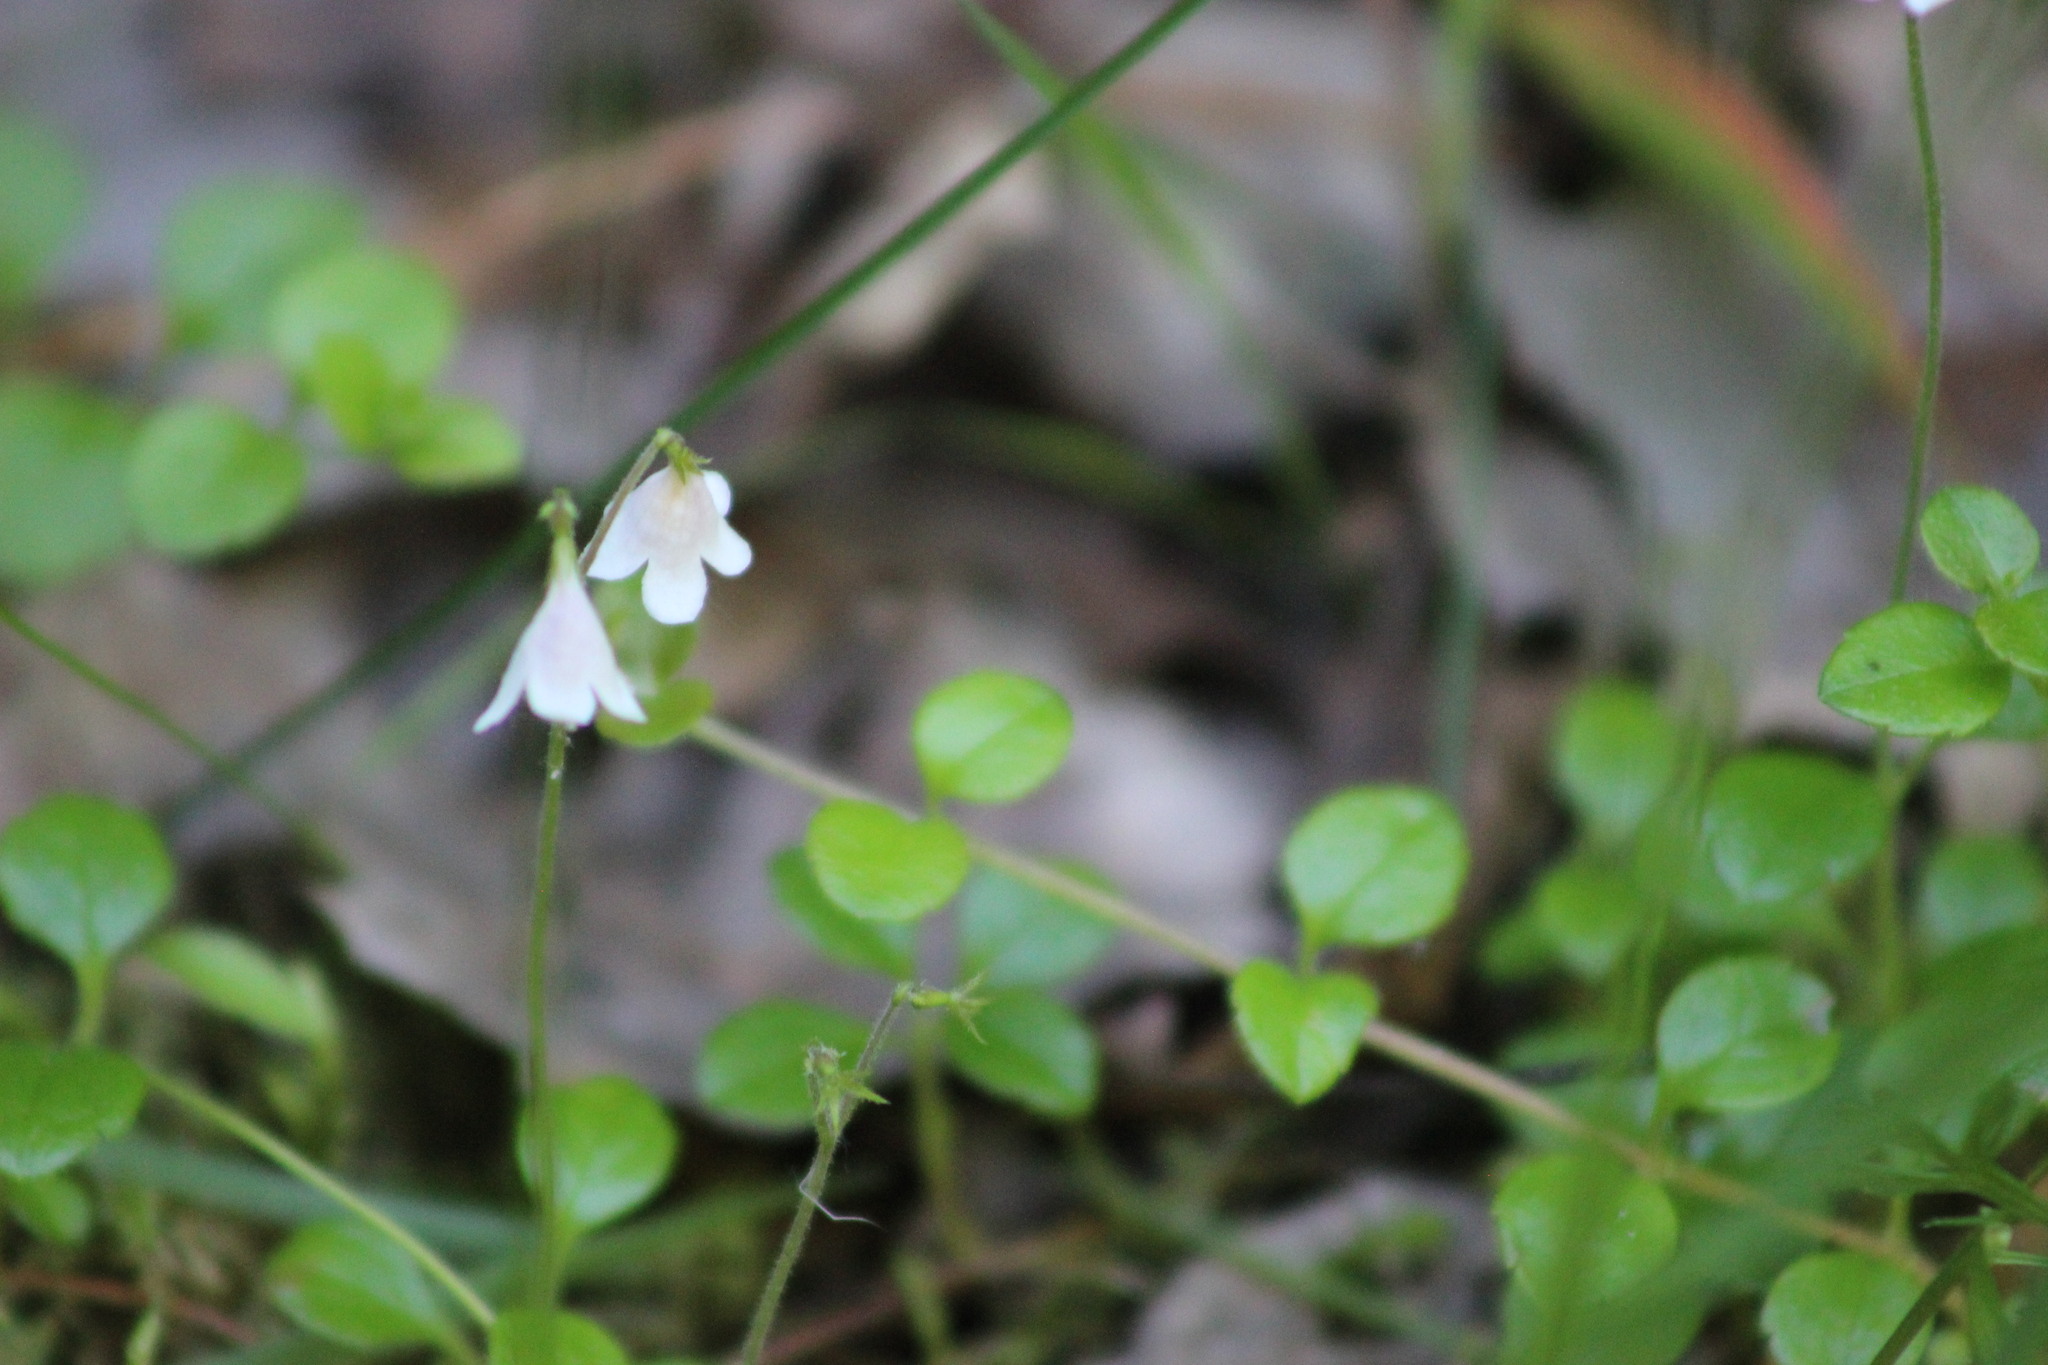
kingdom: Plantae
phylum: Tracheophyta
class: Magnoliopsida
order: Dipsacales
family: Caprifoliaceae
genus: Linnaea
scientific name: Linnaea borealis
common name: Twinflower
